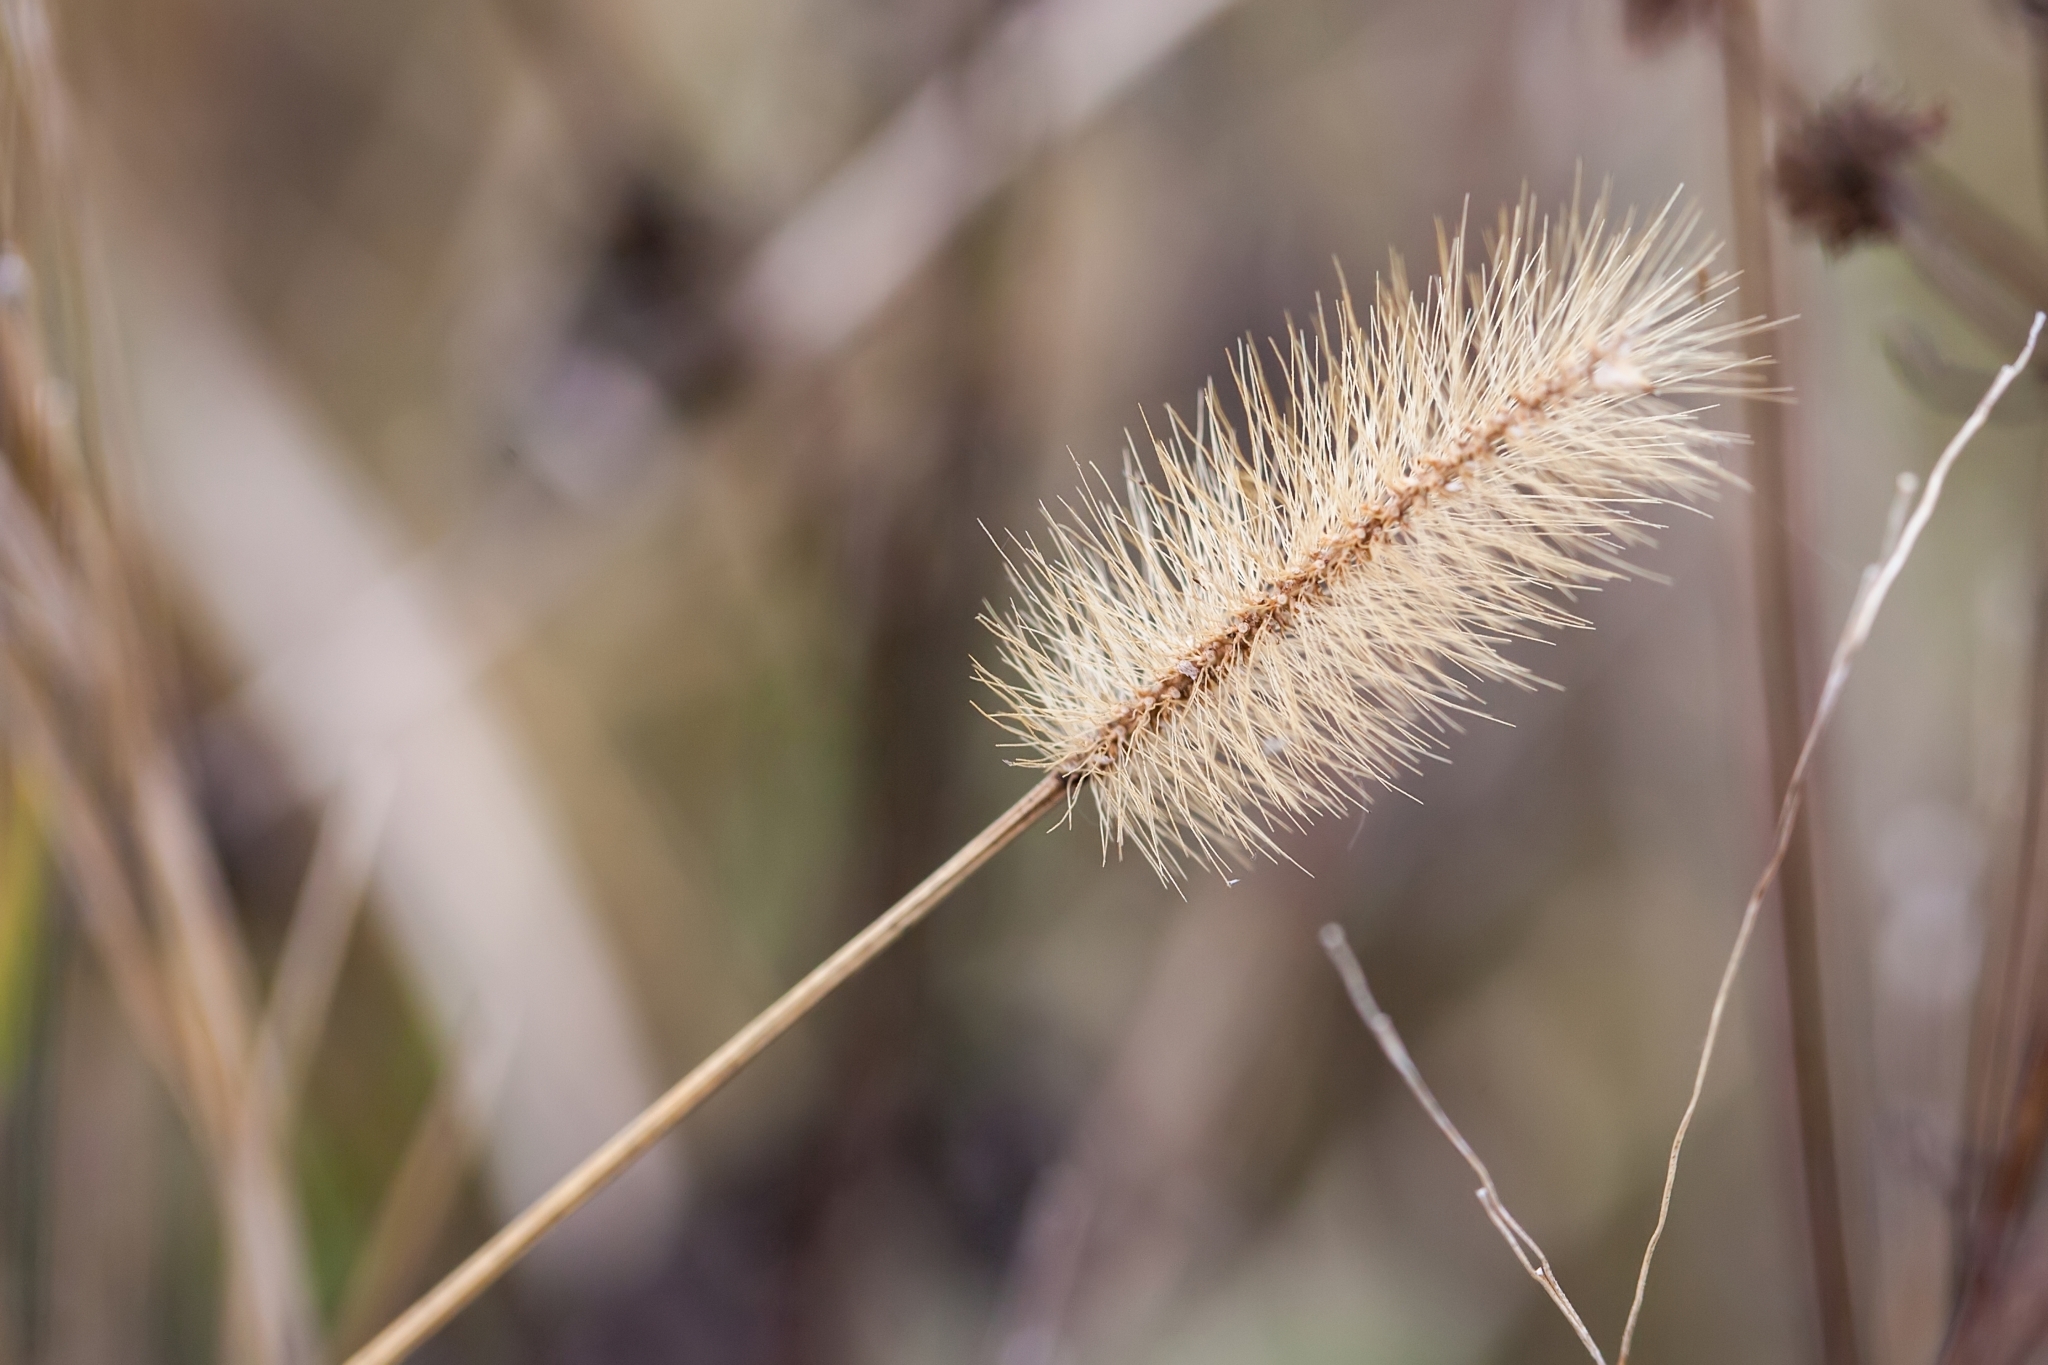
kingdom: Plantae
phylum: Tracheophyta
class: Liliopsida
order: Poales
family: Poaceae
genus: Setaria
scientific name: Setaria parviflora
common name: Knotroot bristle-grass
